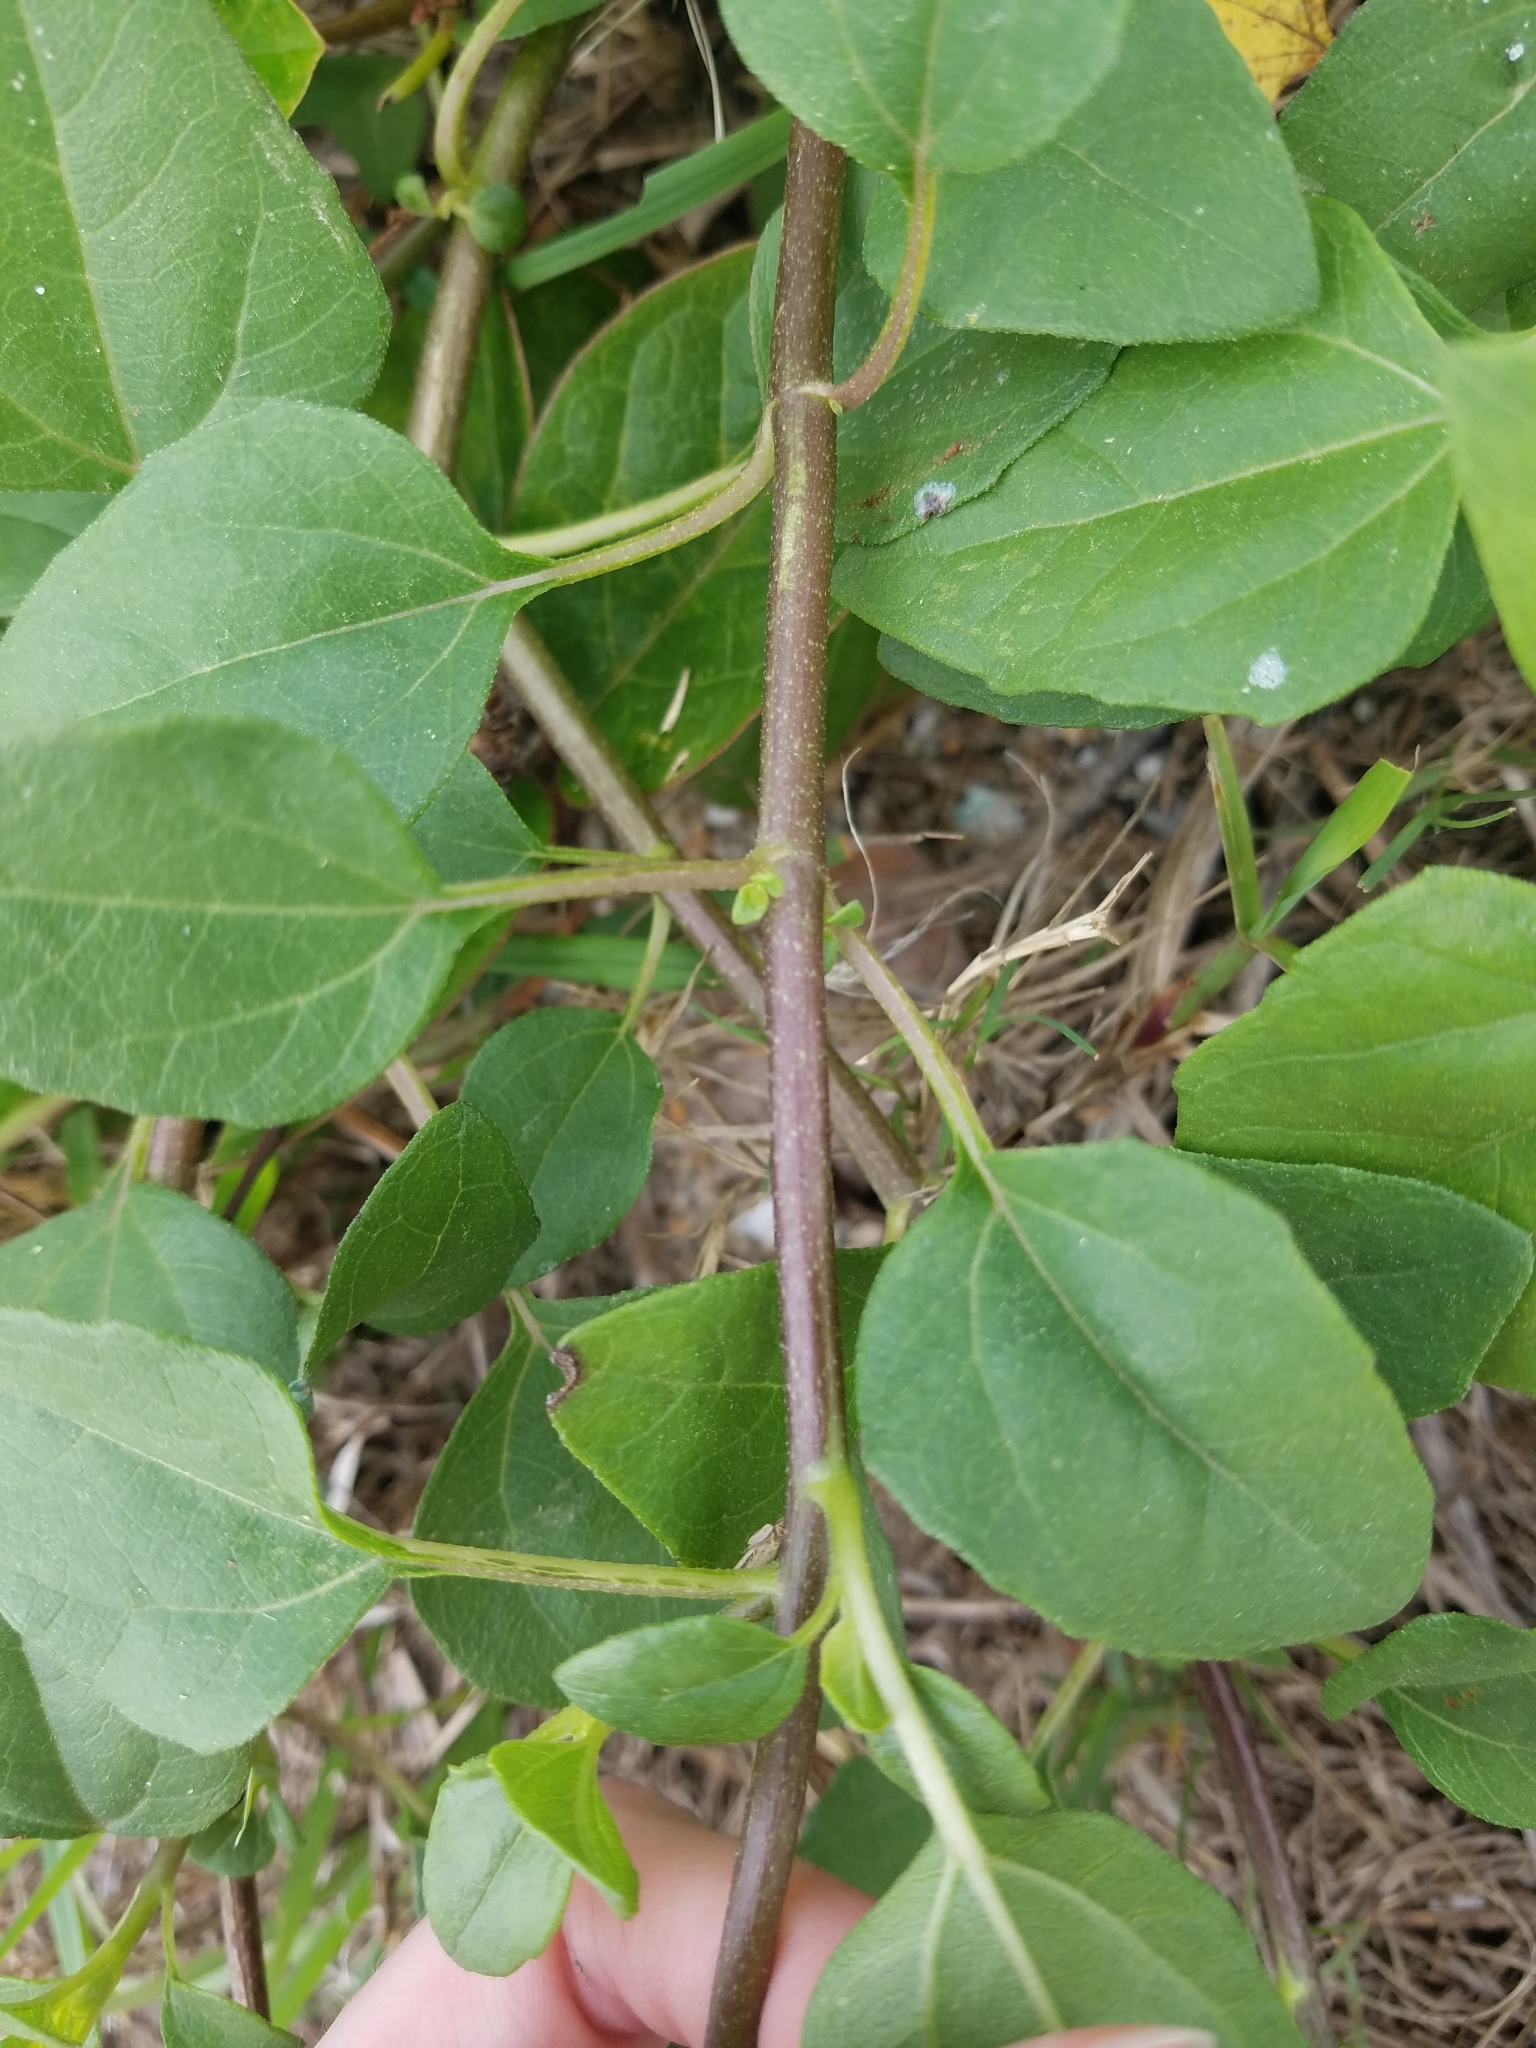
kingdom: Plantae
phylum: Tracheophyta
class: Magnoliopsida
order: Asterales
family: Asteraceae
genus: Helianthus
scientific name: Helianthus debilis
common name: Weak sunflower
